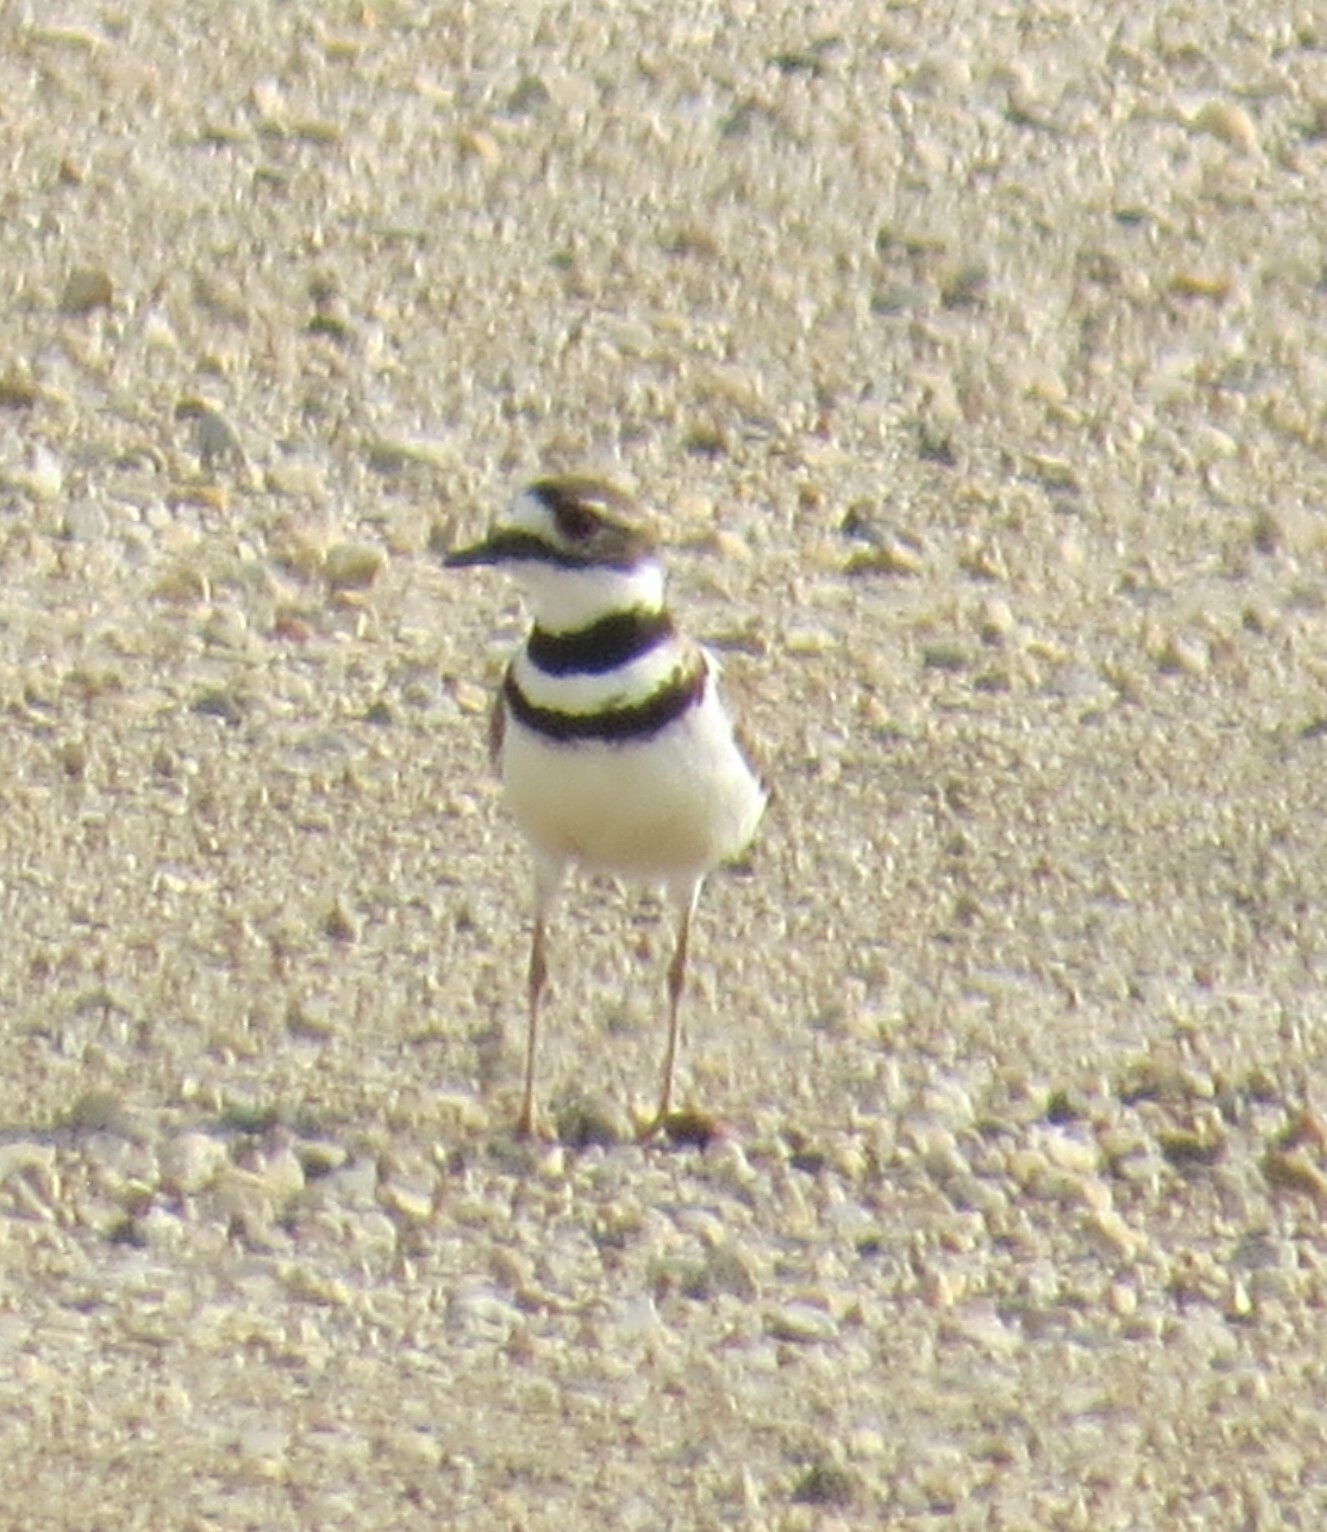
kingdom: Animalia
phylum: Chordata
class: Aves
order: Charadriiformes
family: Charadriidae
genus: Charadrius
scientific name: Charadrius vociferus
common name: Killdeer
